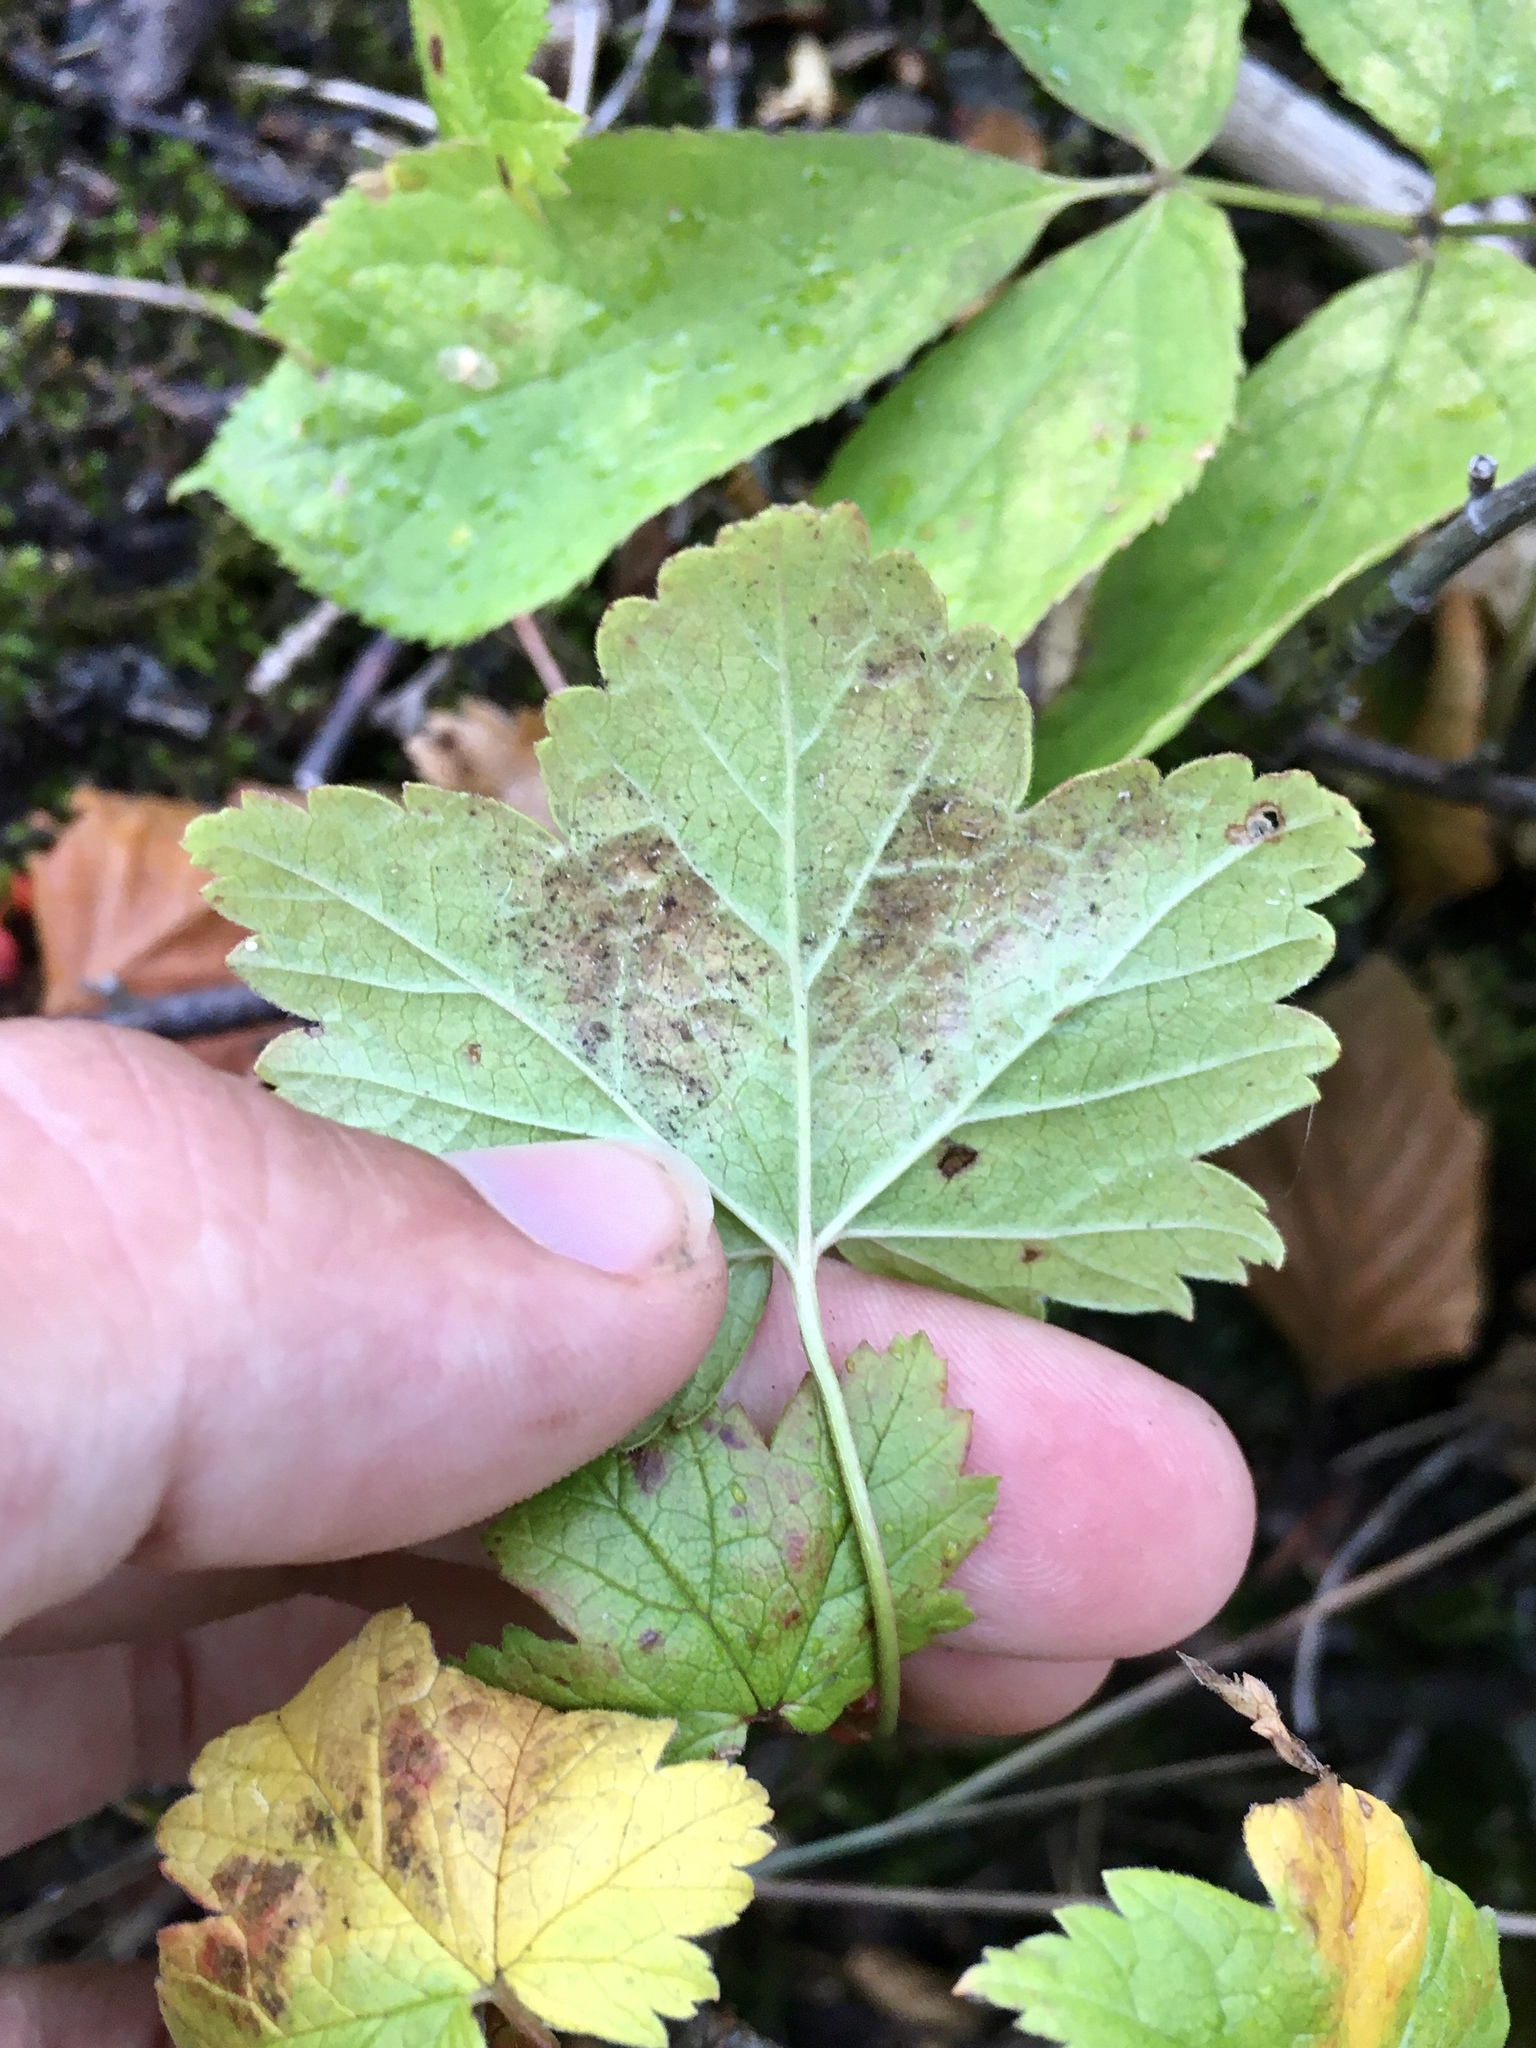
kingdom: Plantae
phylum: Tracheophyta
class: Magnoliopsida
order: Saxifragales
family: Grossulariaceae
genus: Ribes
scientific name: Ribes glandulosum
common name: Skunk currant
